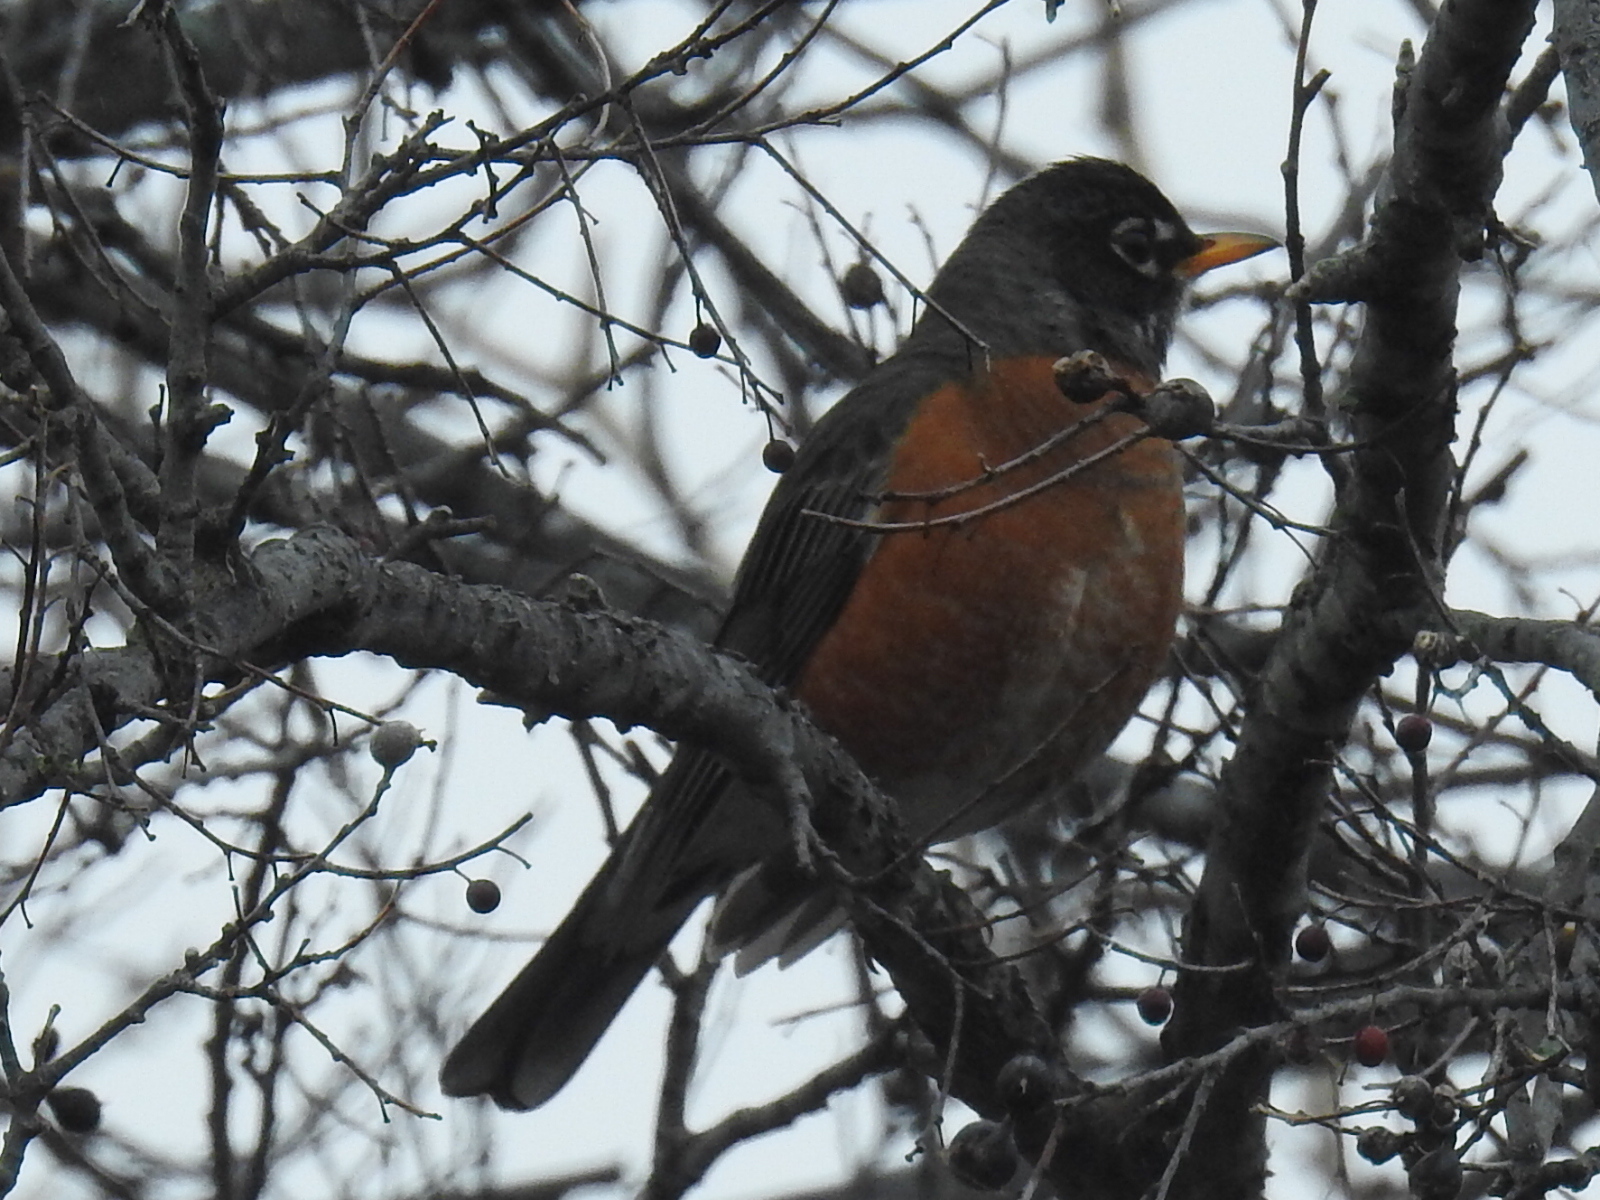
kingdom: Animalia
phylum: Chordata
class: Aves
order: Passeriformes
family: Turdidae
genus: Turdus
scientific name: Turdus migratorius
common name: American robin
